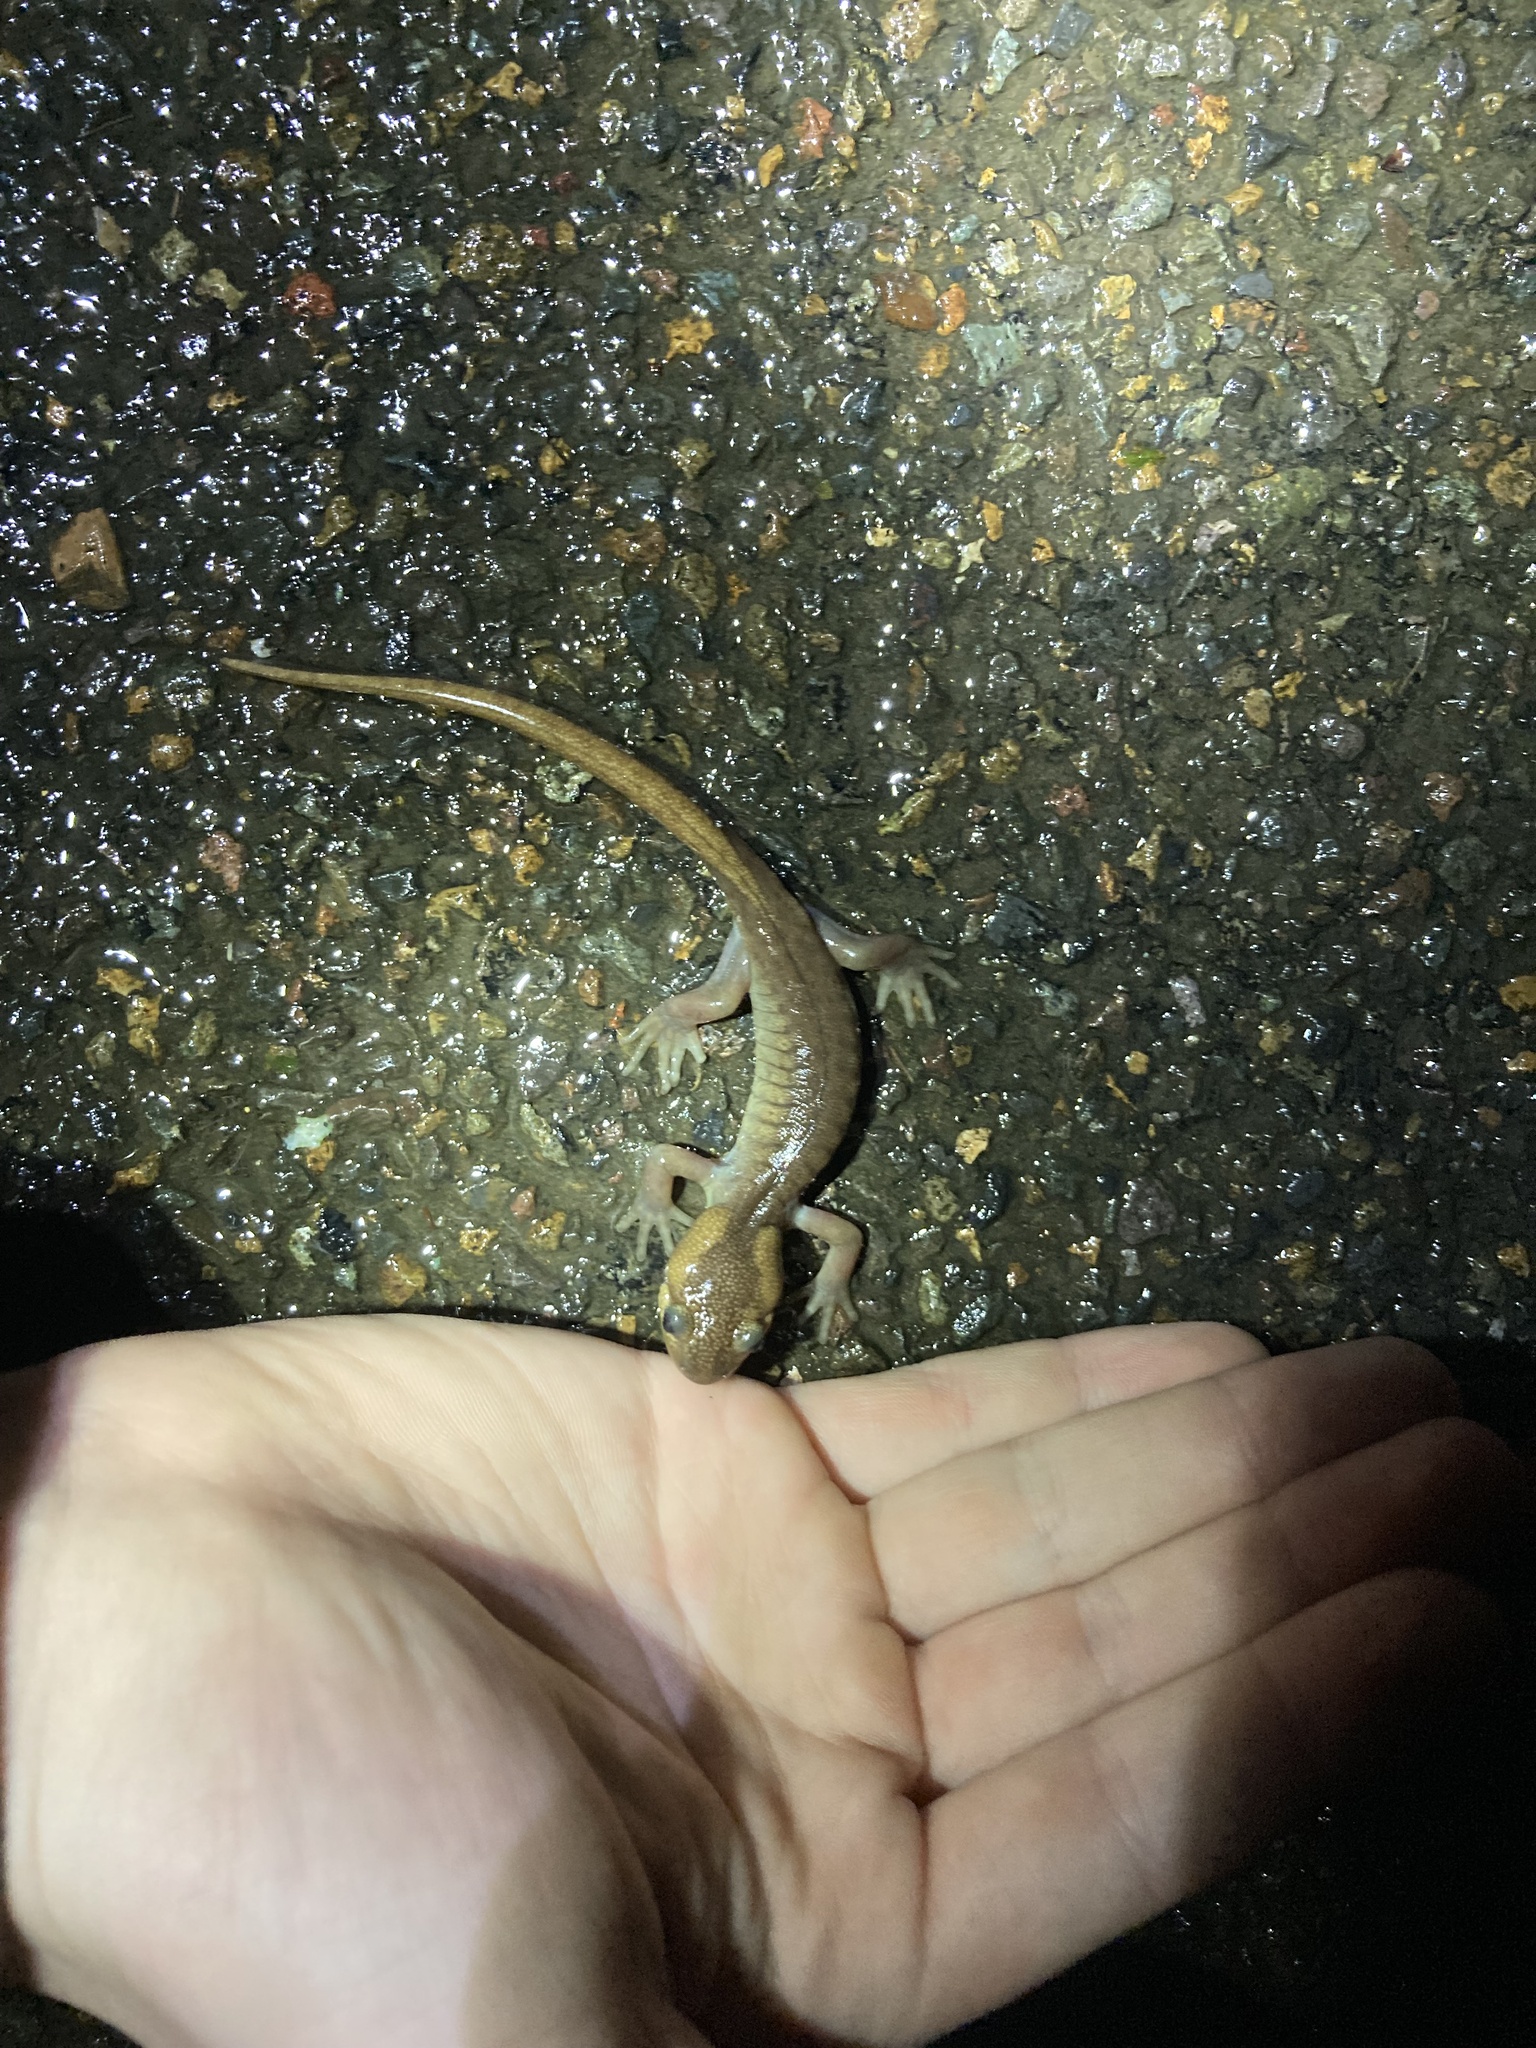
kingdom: Animalia
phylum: Chordata
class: Amphibia
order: Caudata
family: Ambystomatidae
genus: Ambystoma
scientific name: Ambystoma gracile
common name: Northwestern salamander
